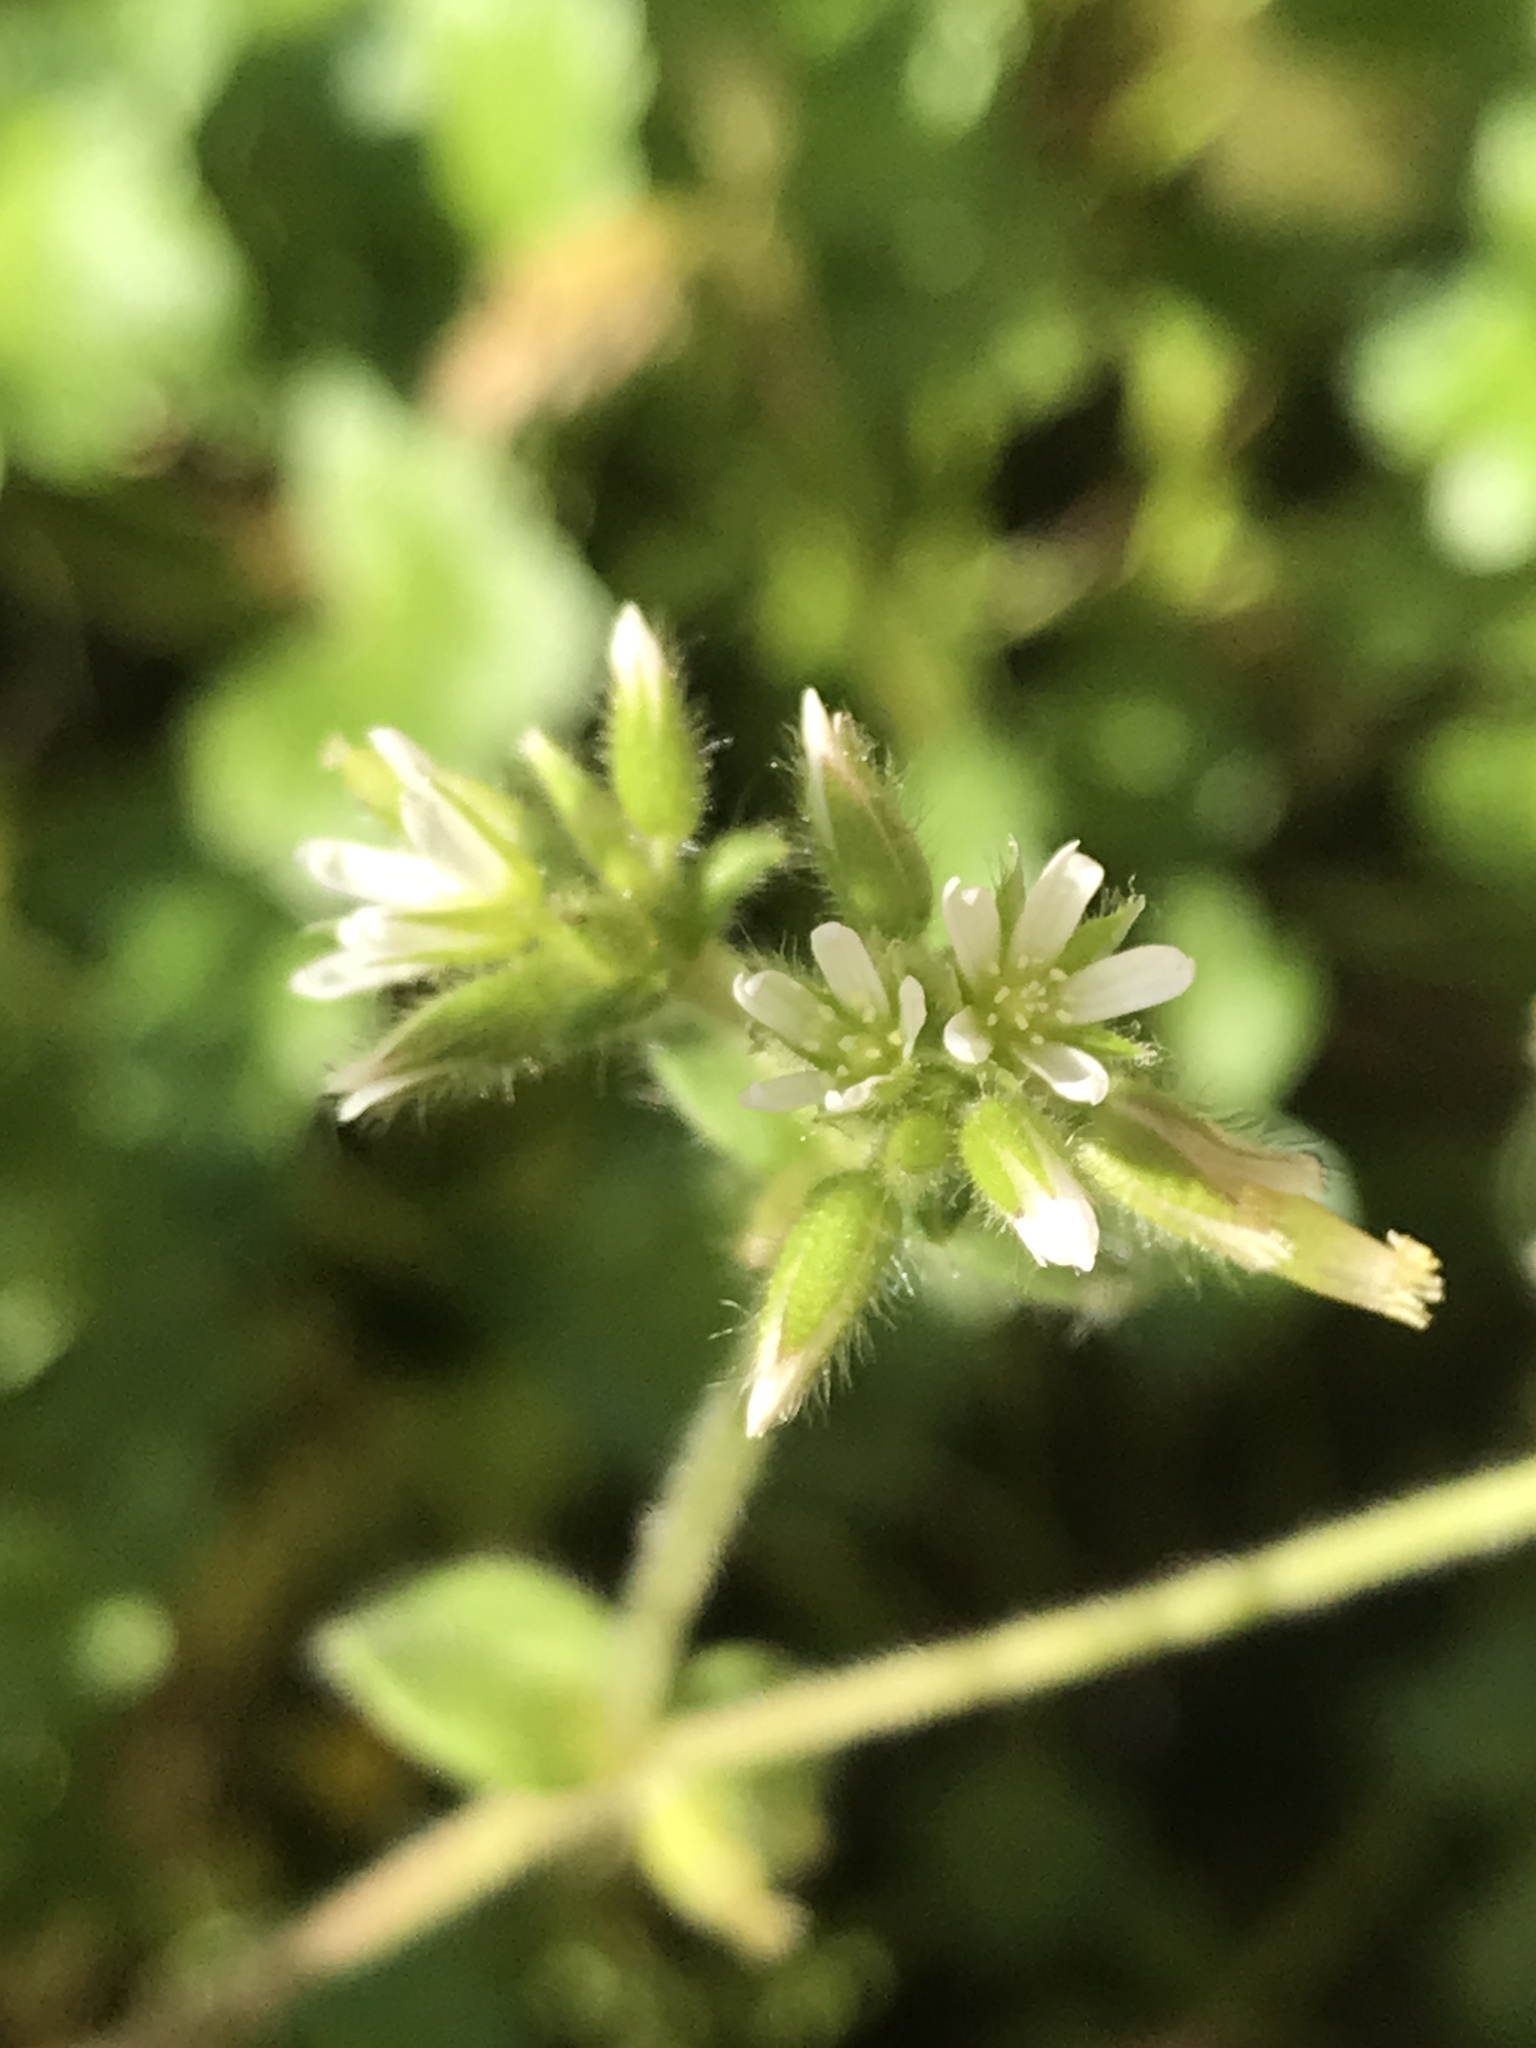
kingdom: Plantae
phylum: Tracheophyta
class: Magnoliopsida
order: Caryophyllales
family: Caryophyllaceae
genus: Cerastium
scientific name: Cerastium glomeratum
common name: Sticky chickweed
